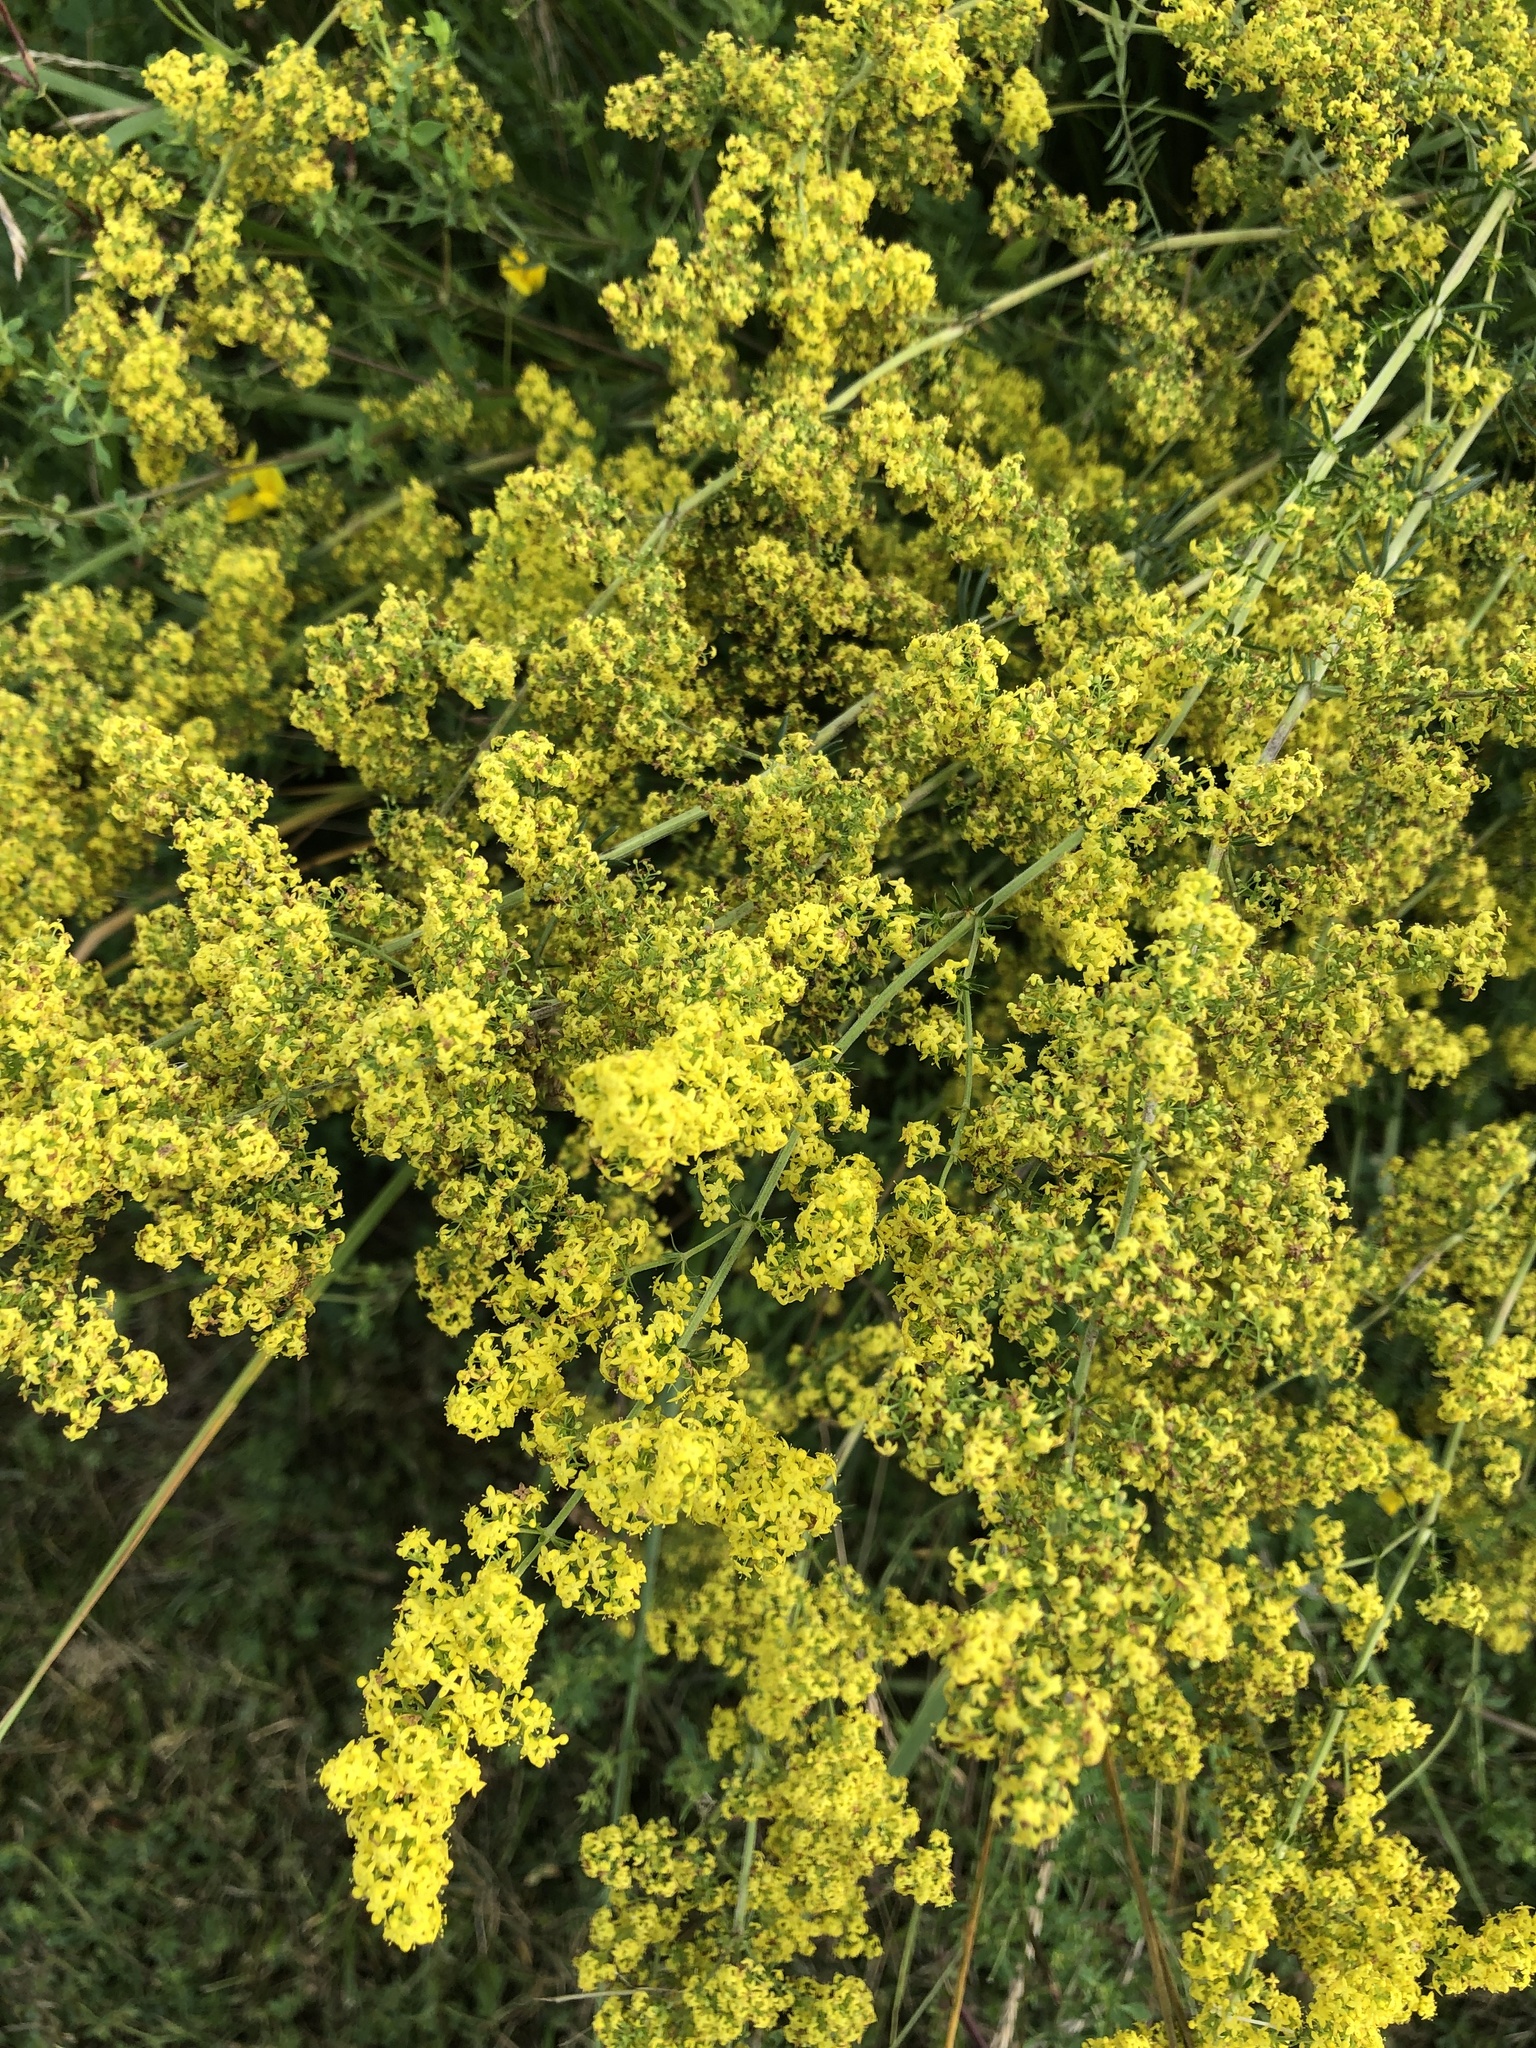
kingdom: Plantae
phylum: Tracheophyta
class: Magnoliopsida
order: Gentianales
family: Rubiaceae
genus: Galium
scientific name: Galium verum
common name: Lady's bedstraw
